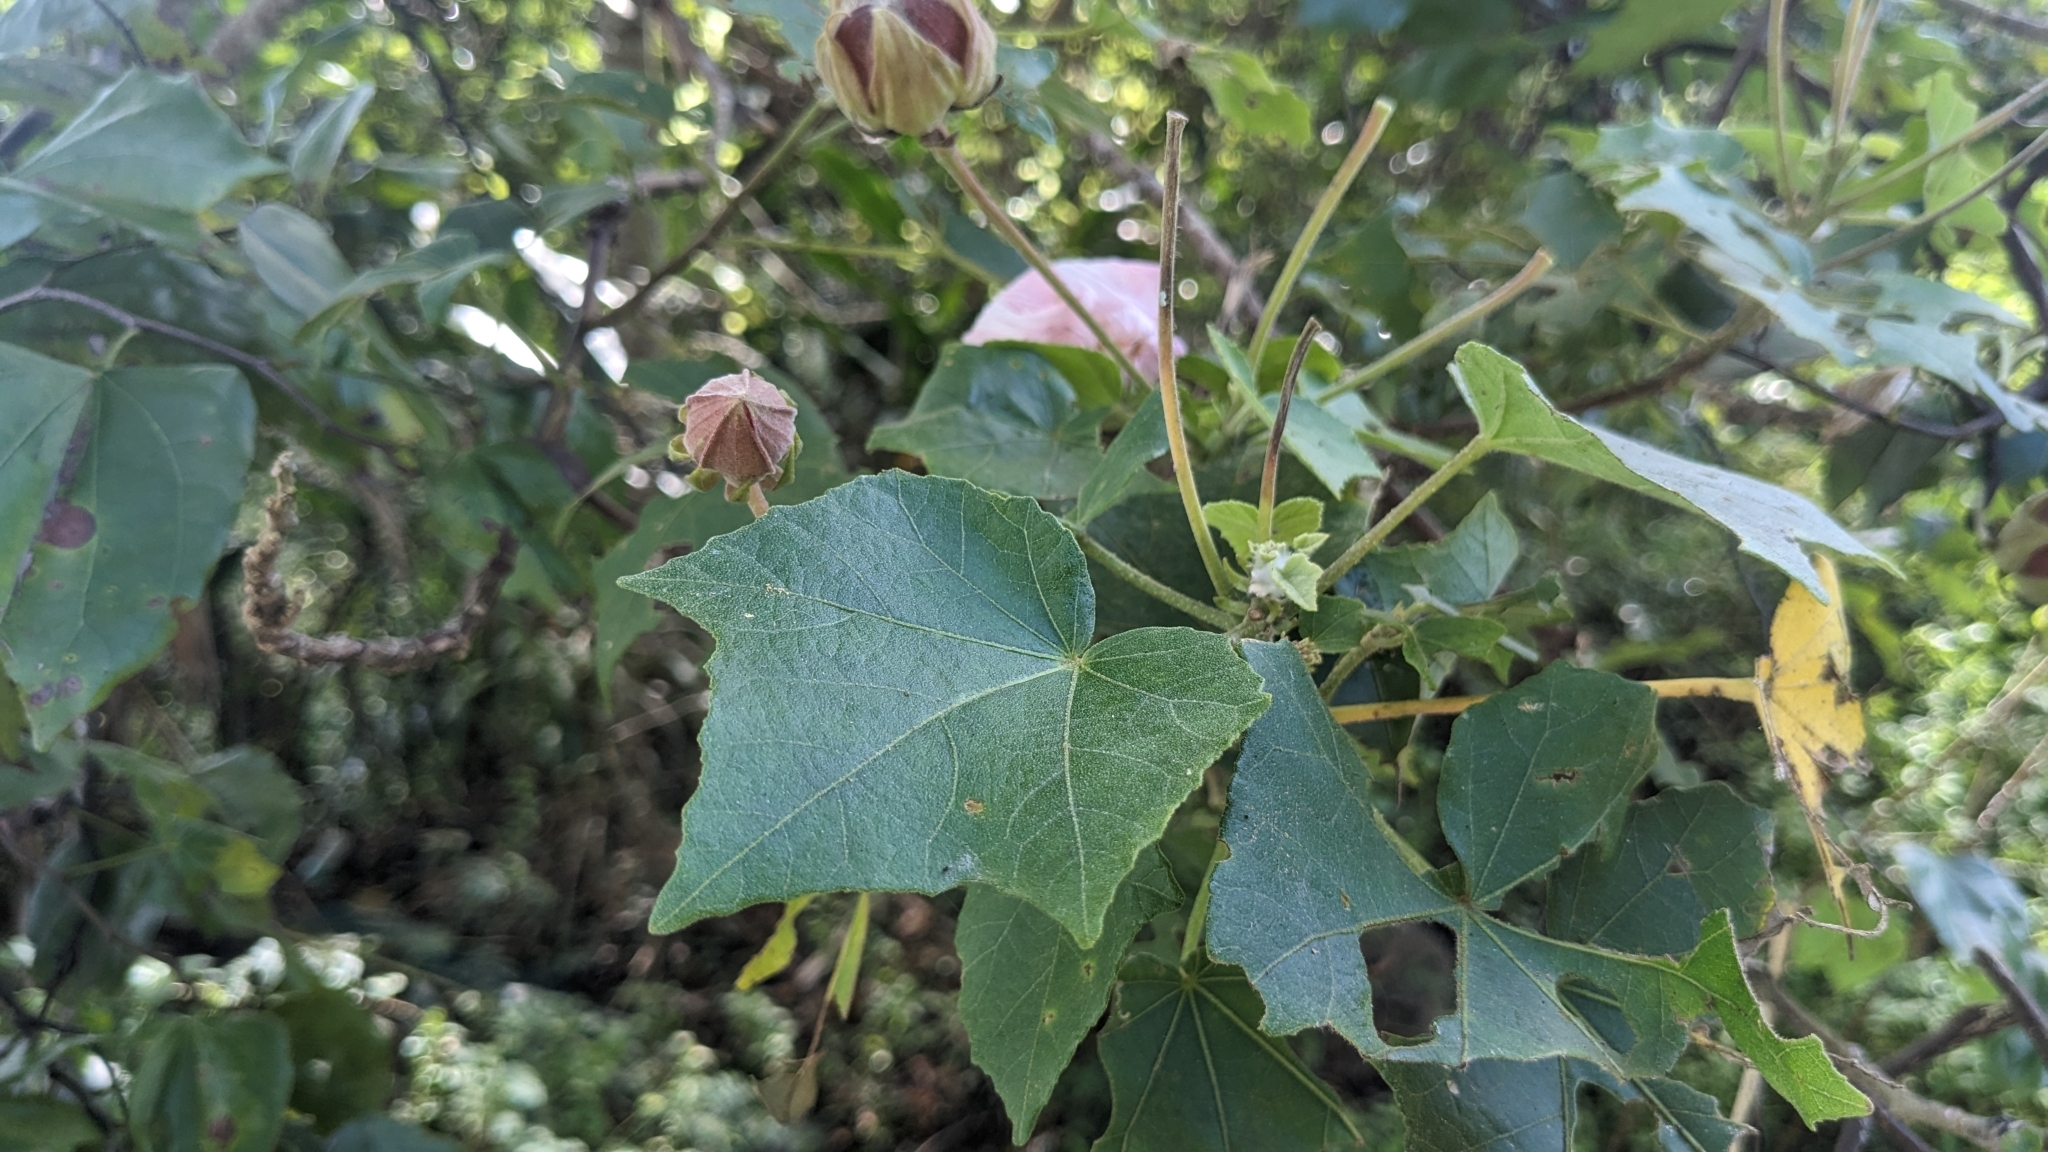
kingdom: Plantae
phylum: Tracheophyta
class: Magnoliopsida
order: Malvales
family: Malvaceae
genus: Hibiscus
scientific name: Hibiscus makinoi
